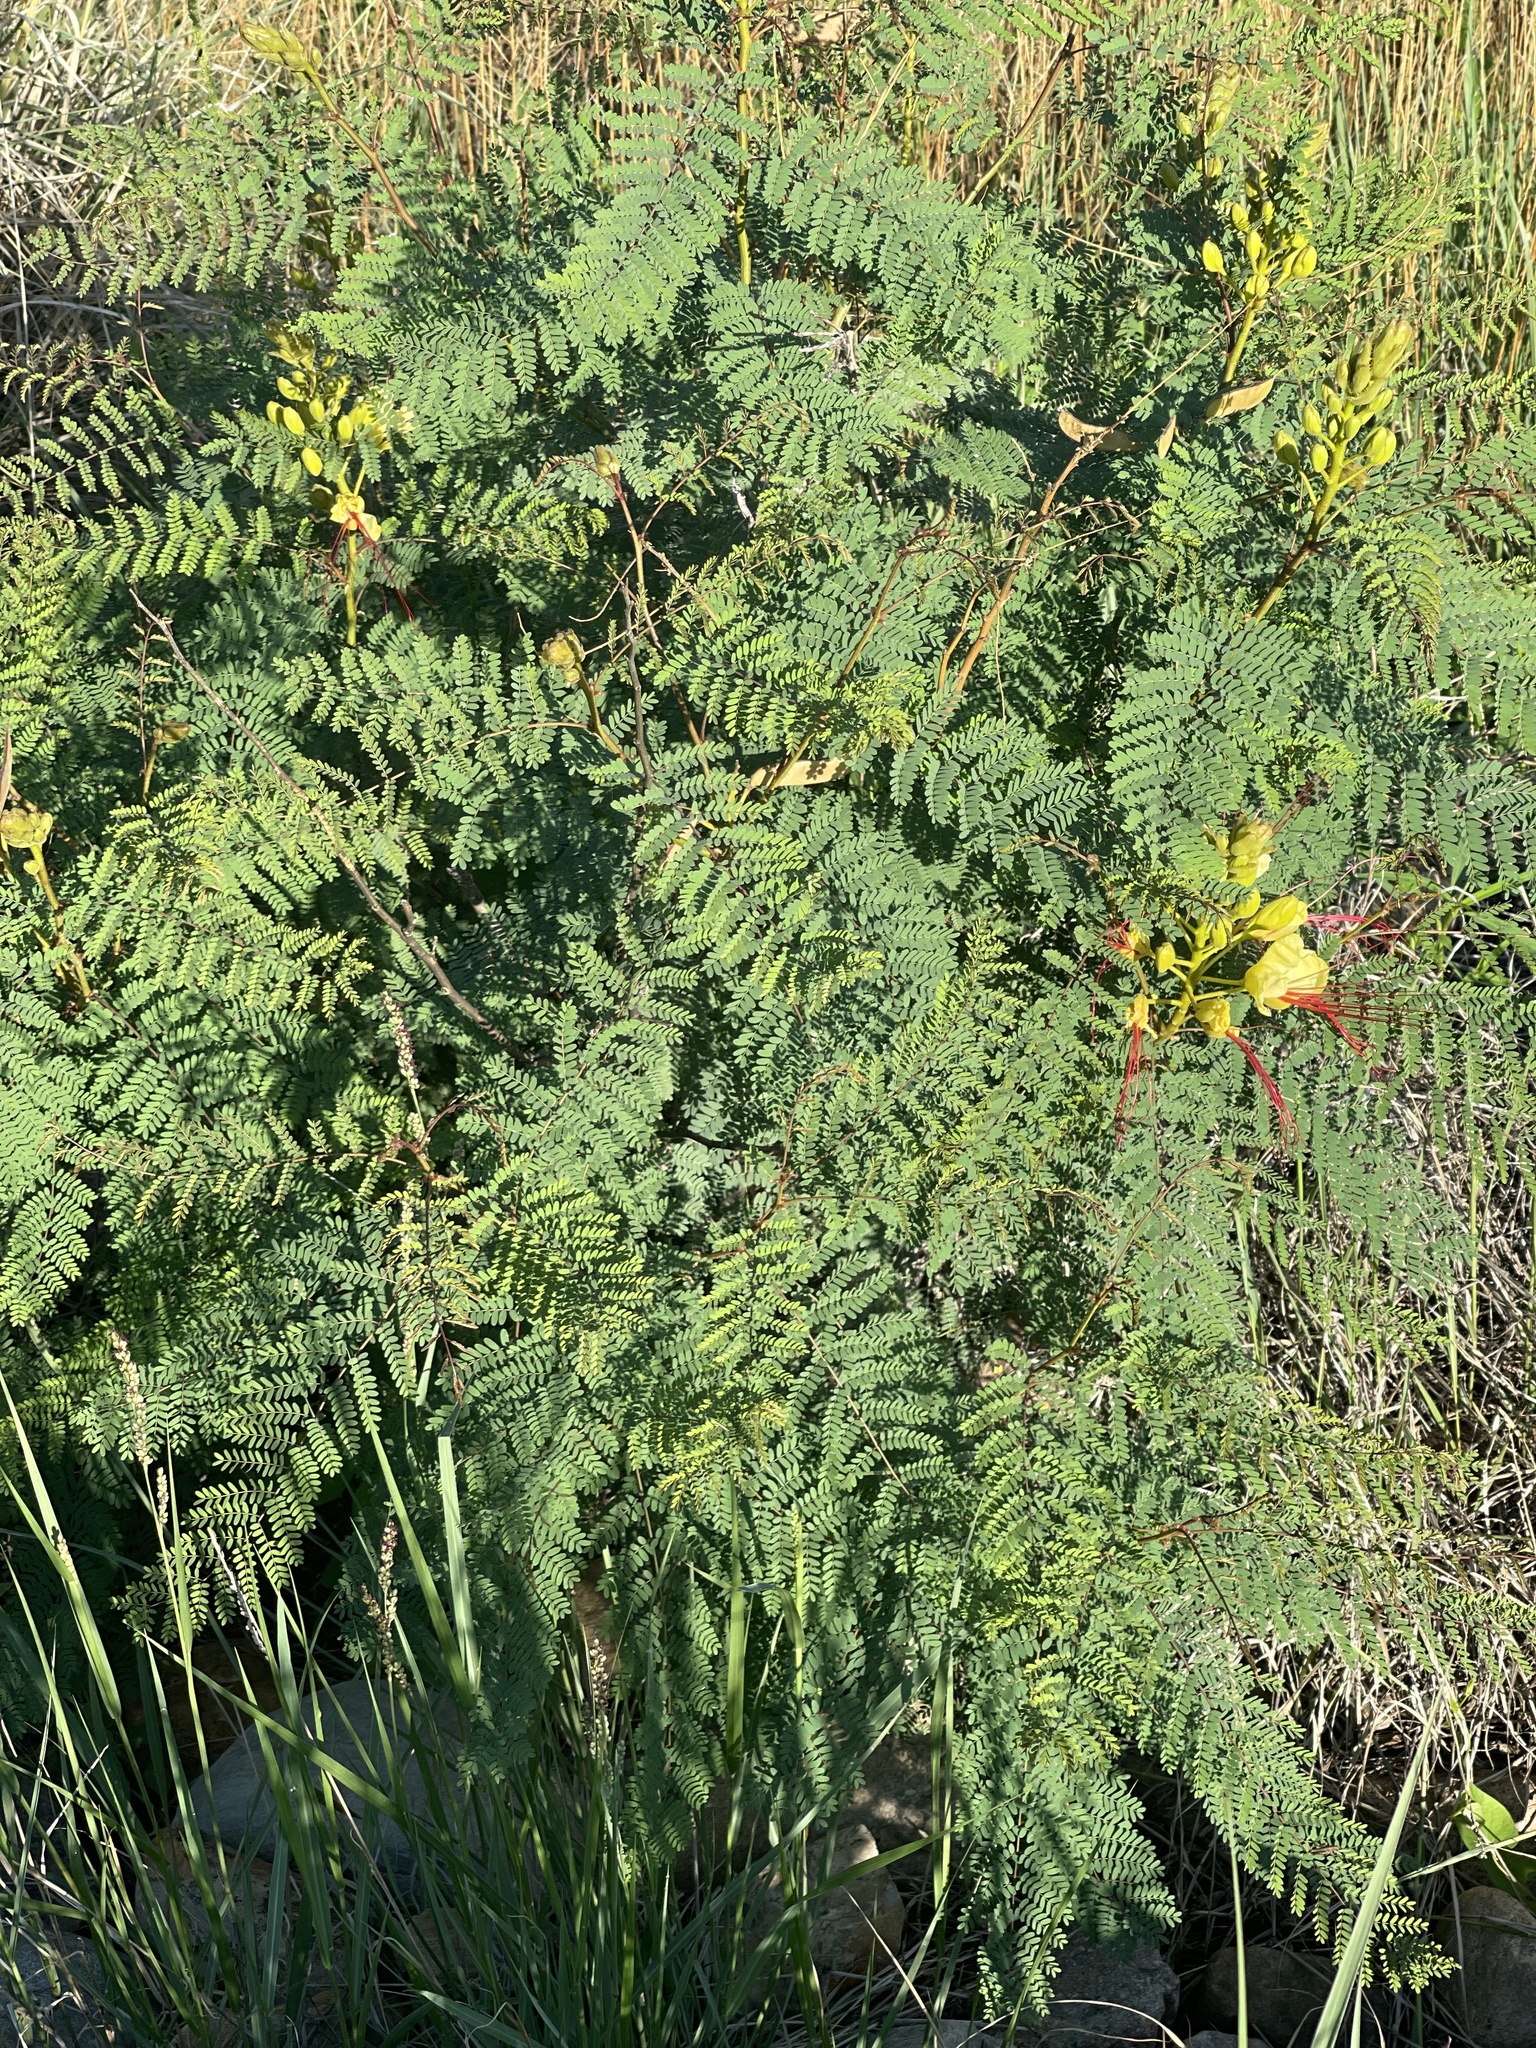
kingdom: Plantae
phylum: Tracheophyta
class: Magnoliopsida
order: Fabales
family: Fabaceae
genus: Erythrostemon
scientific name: Erythrostemon gilliesii
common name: Bird-of-paradise shrub
